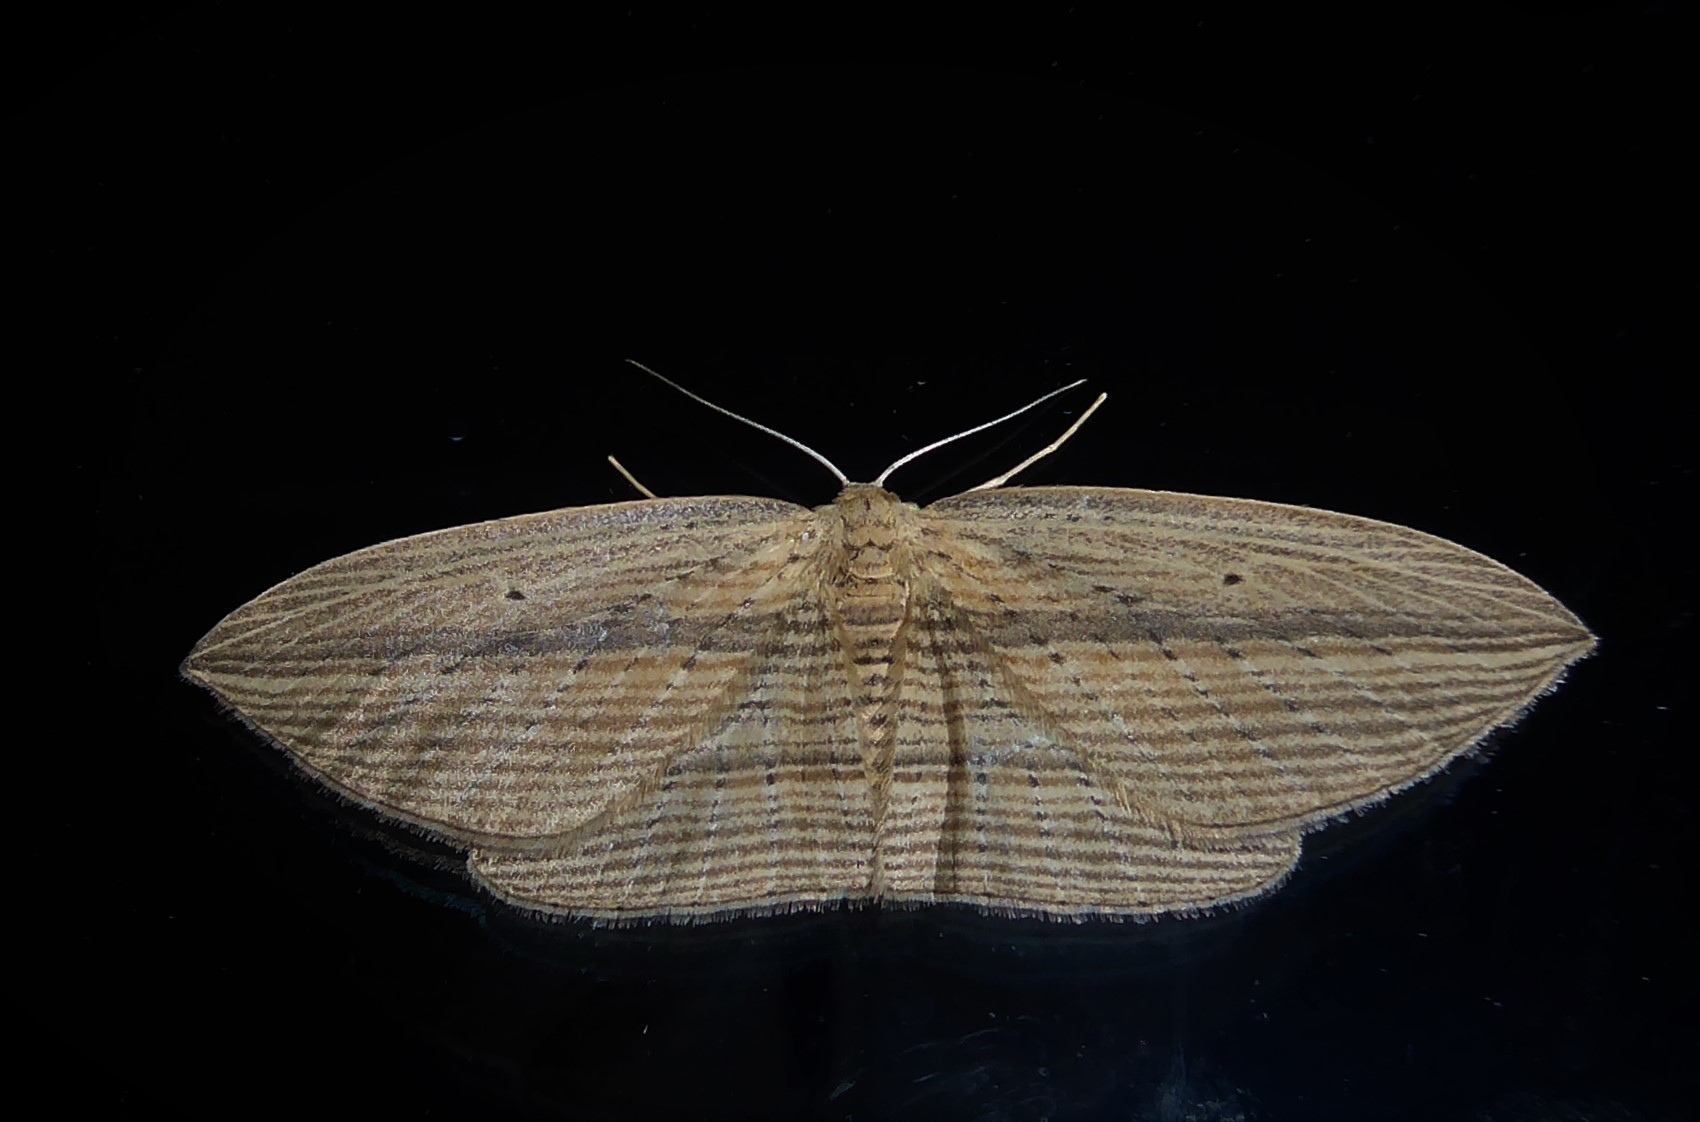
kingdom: Animalia
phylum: Arthropoda
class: Insecta
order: Lepidoptera
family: Geometridae
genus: Epiphryne
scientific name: Epiphryne verriculata
